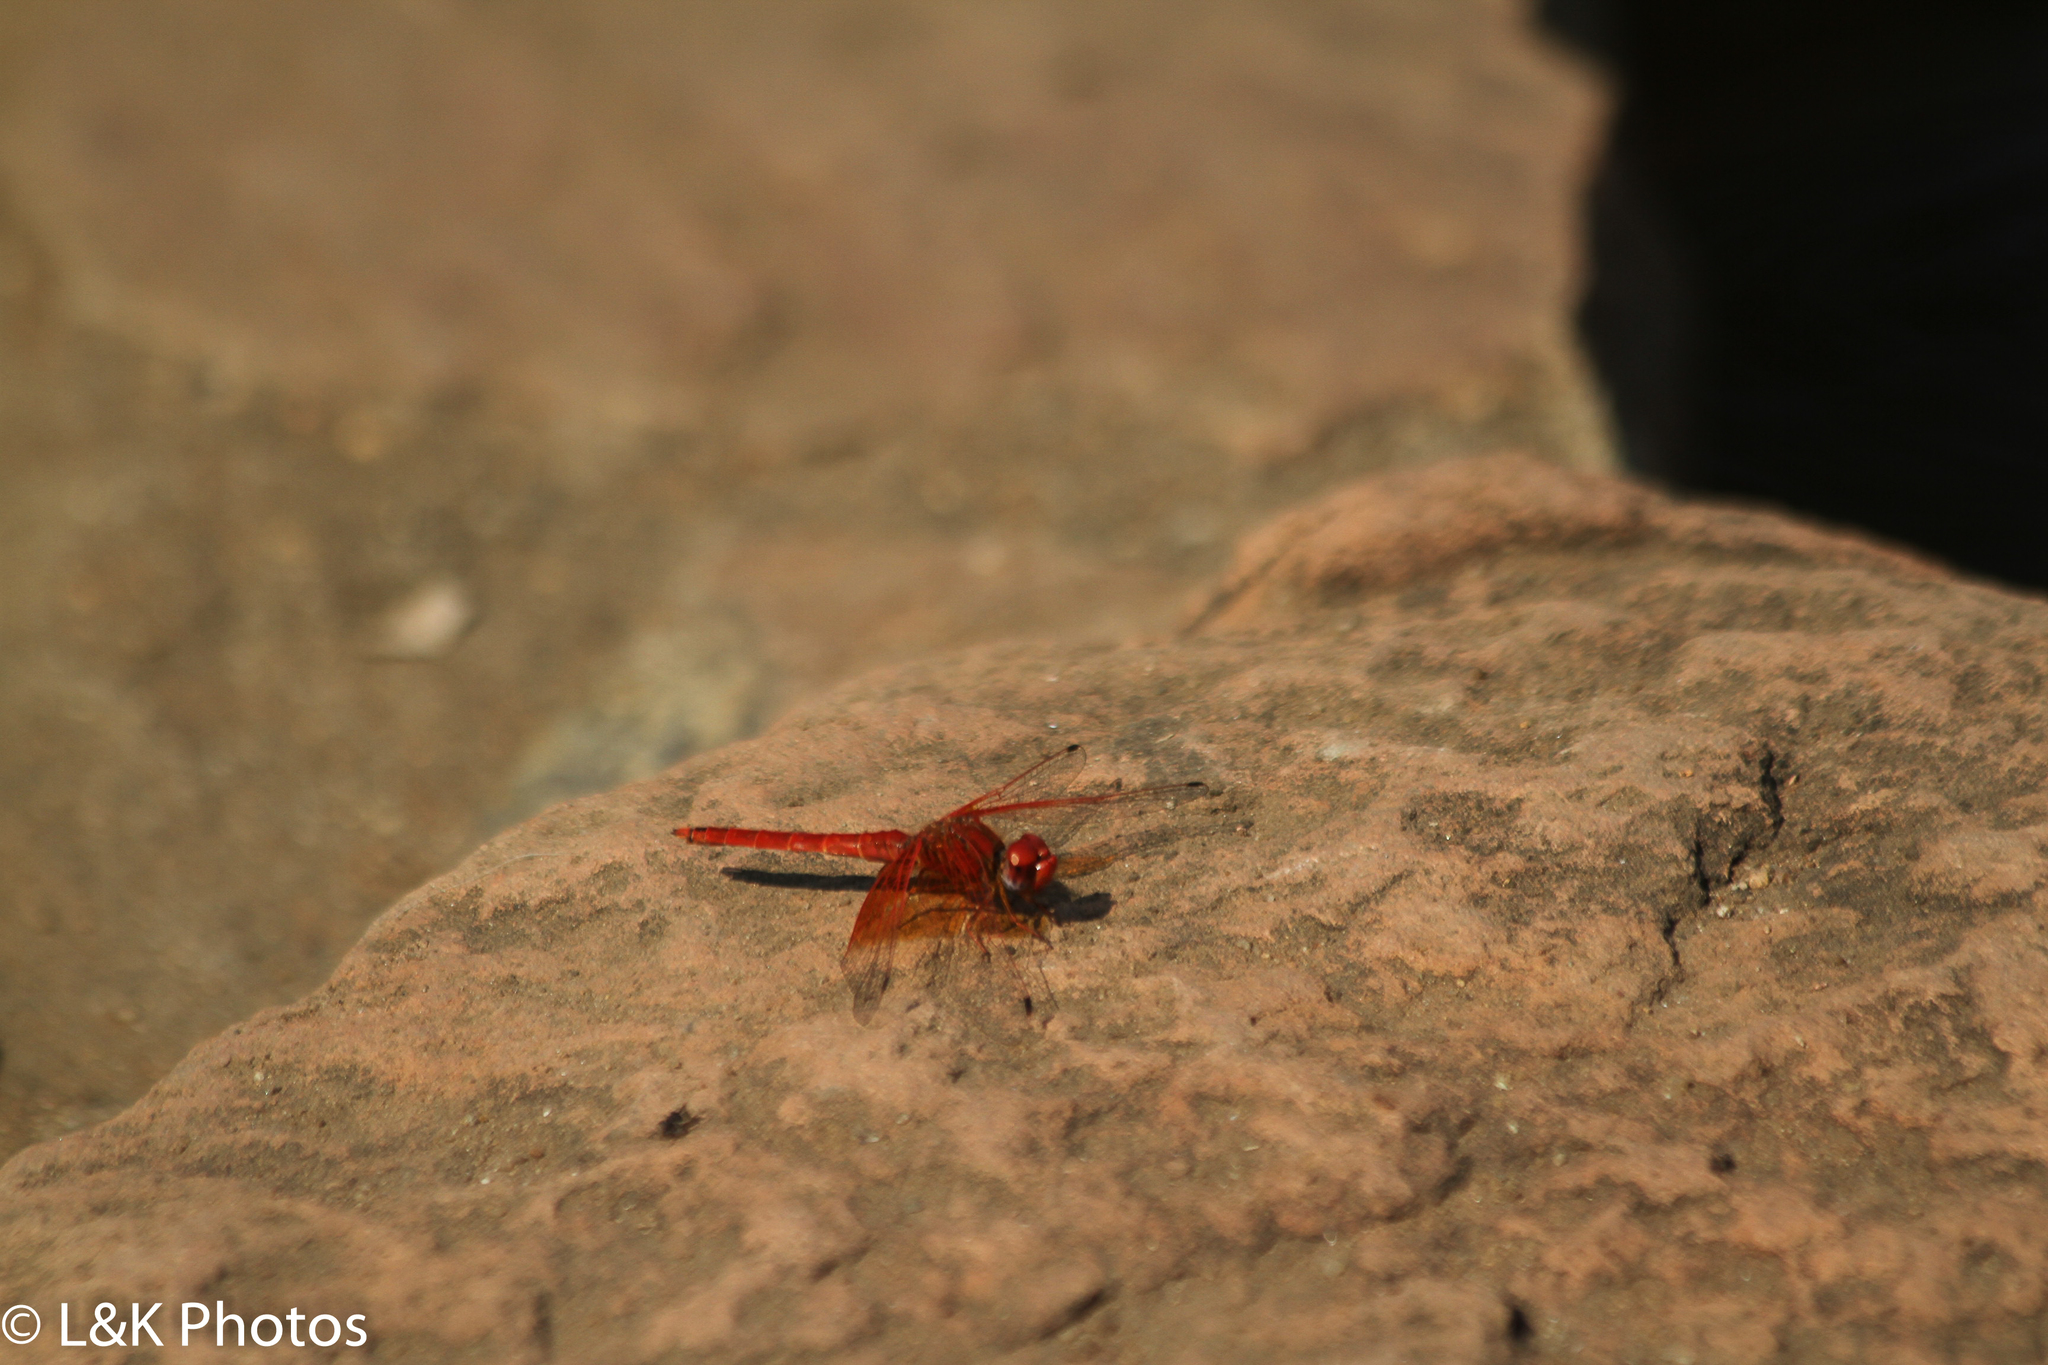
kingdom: Animalia
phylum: Arthropoda
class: Insecta
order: Odonata
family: Libellulidae
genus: Trithemis
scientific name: Trithemis kirbyi
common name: Kirby's dropwing
